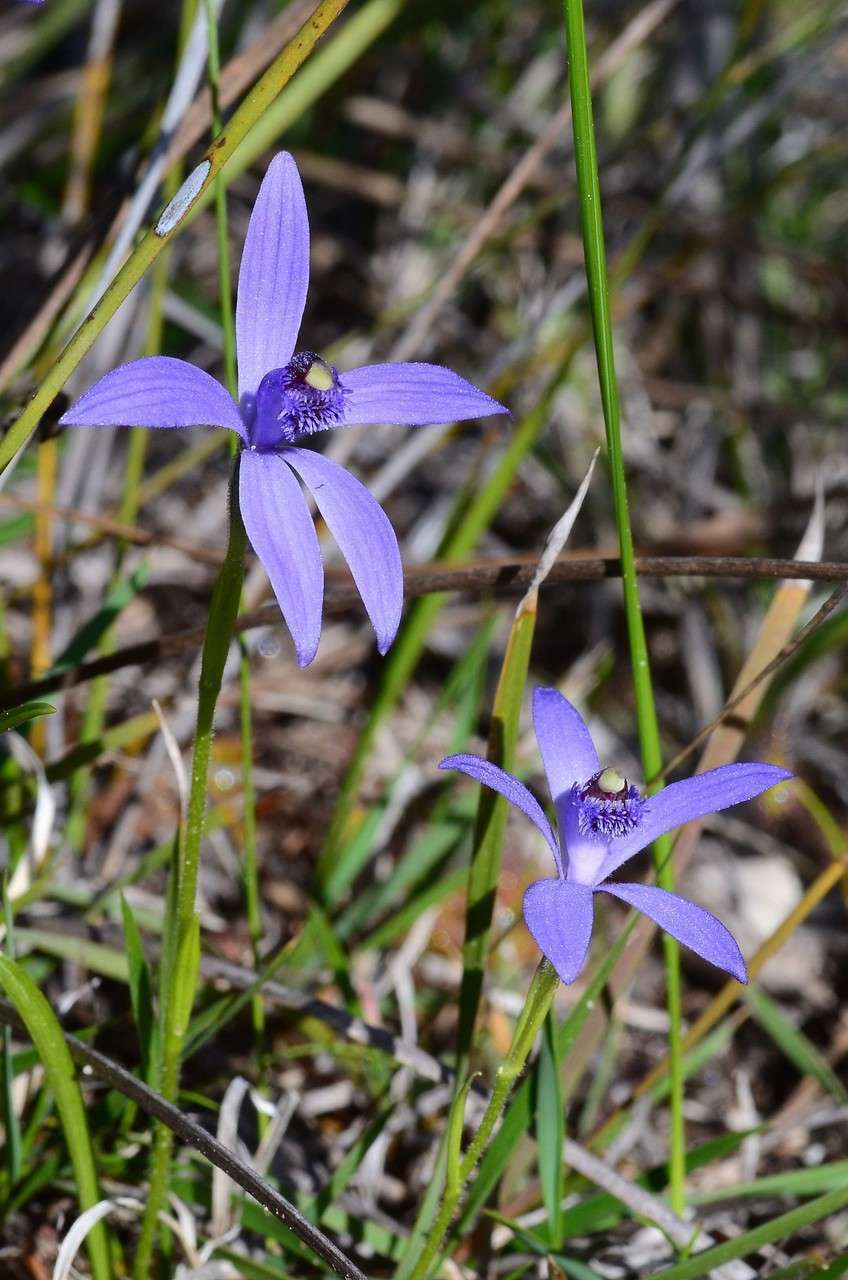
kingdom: Plantae
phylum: Tracheophyta
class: Liliopsida
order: Asparagales
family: Orchidaceae
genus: Pheladenia
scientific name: Pheladenia deformis
